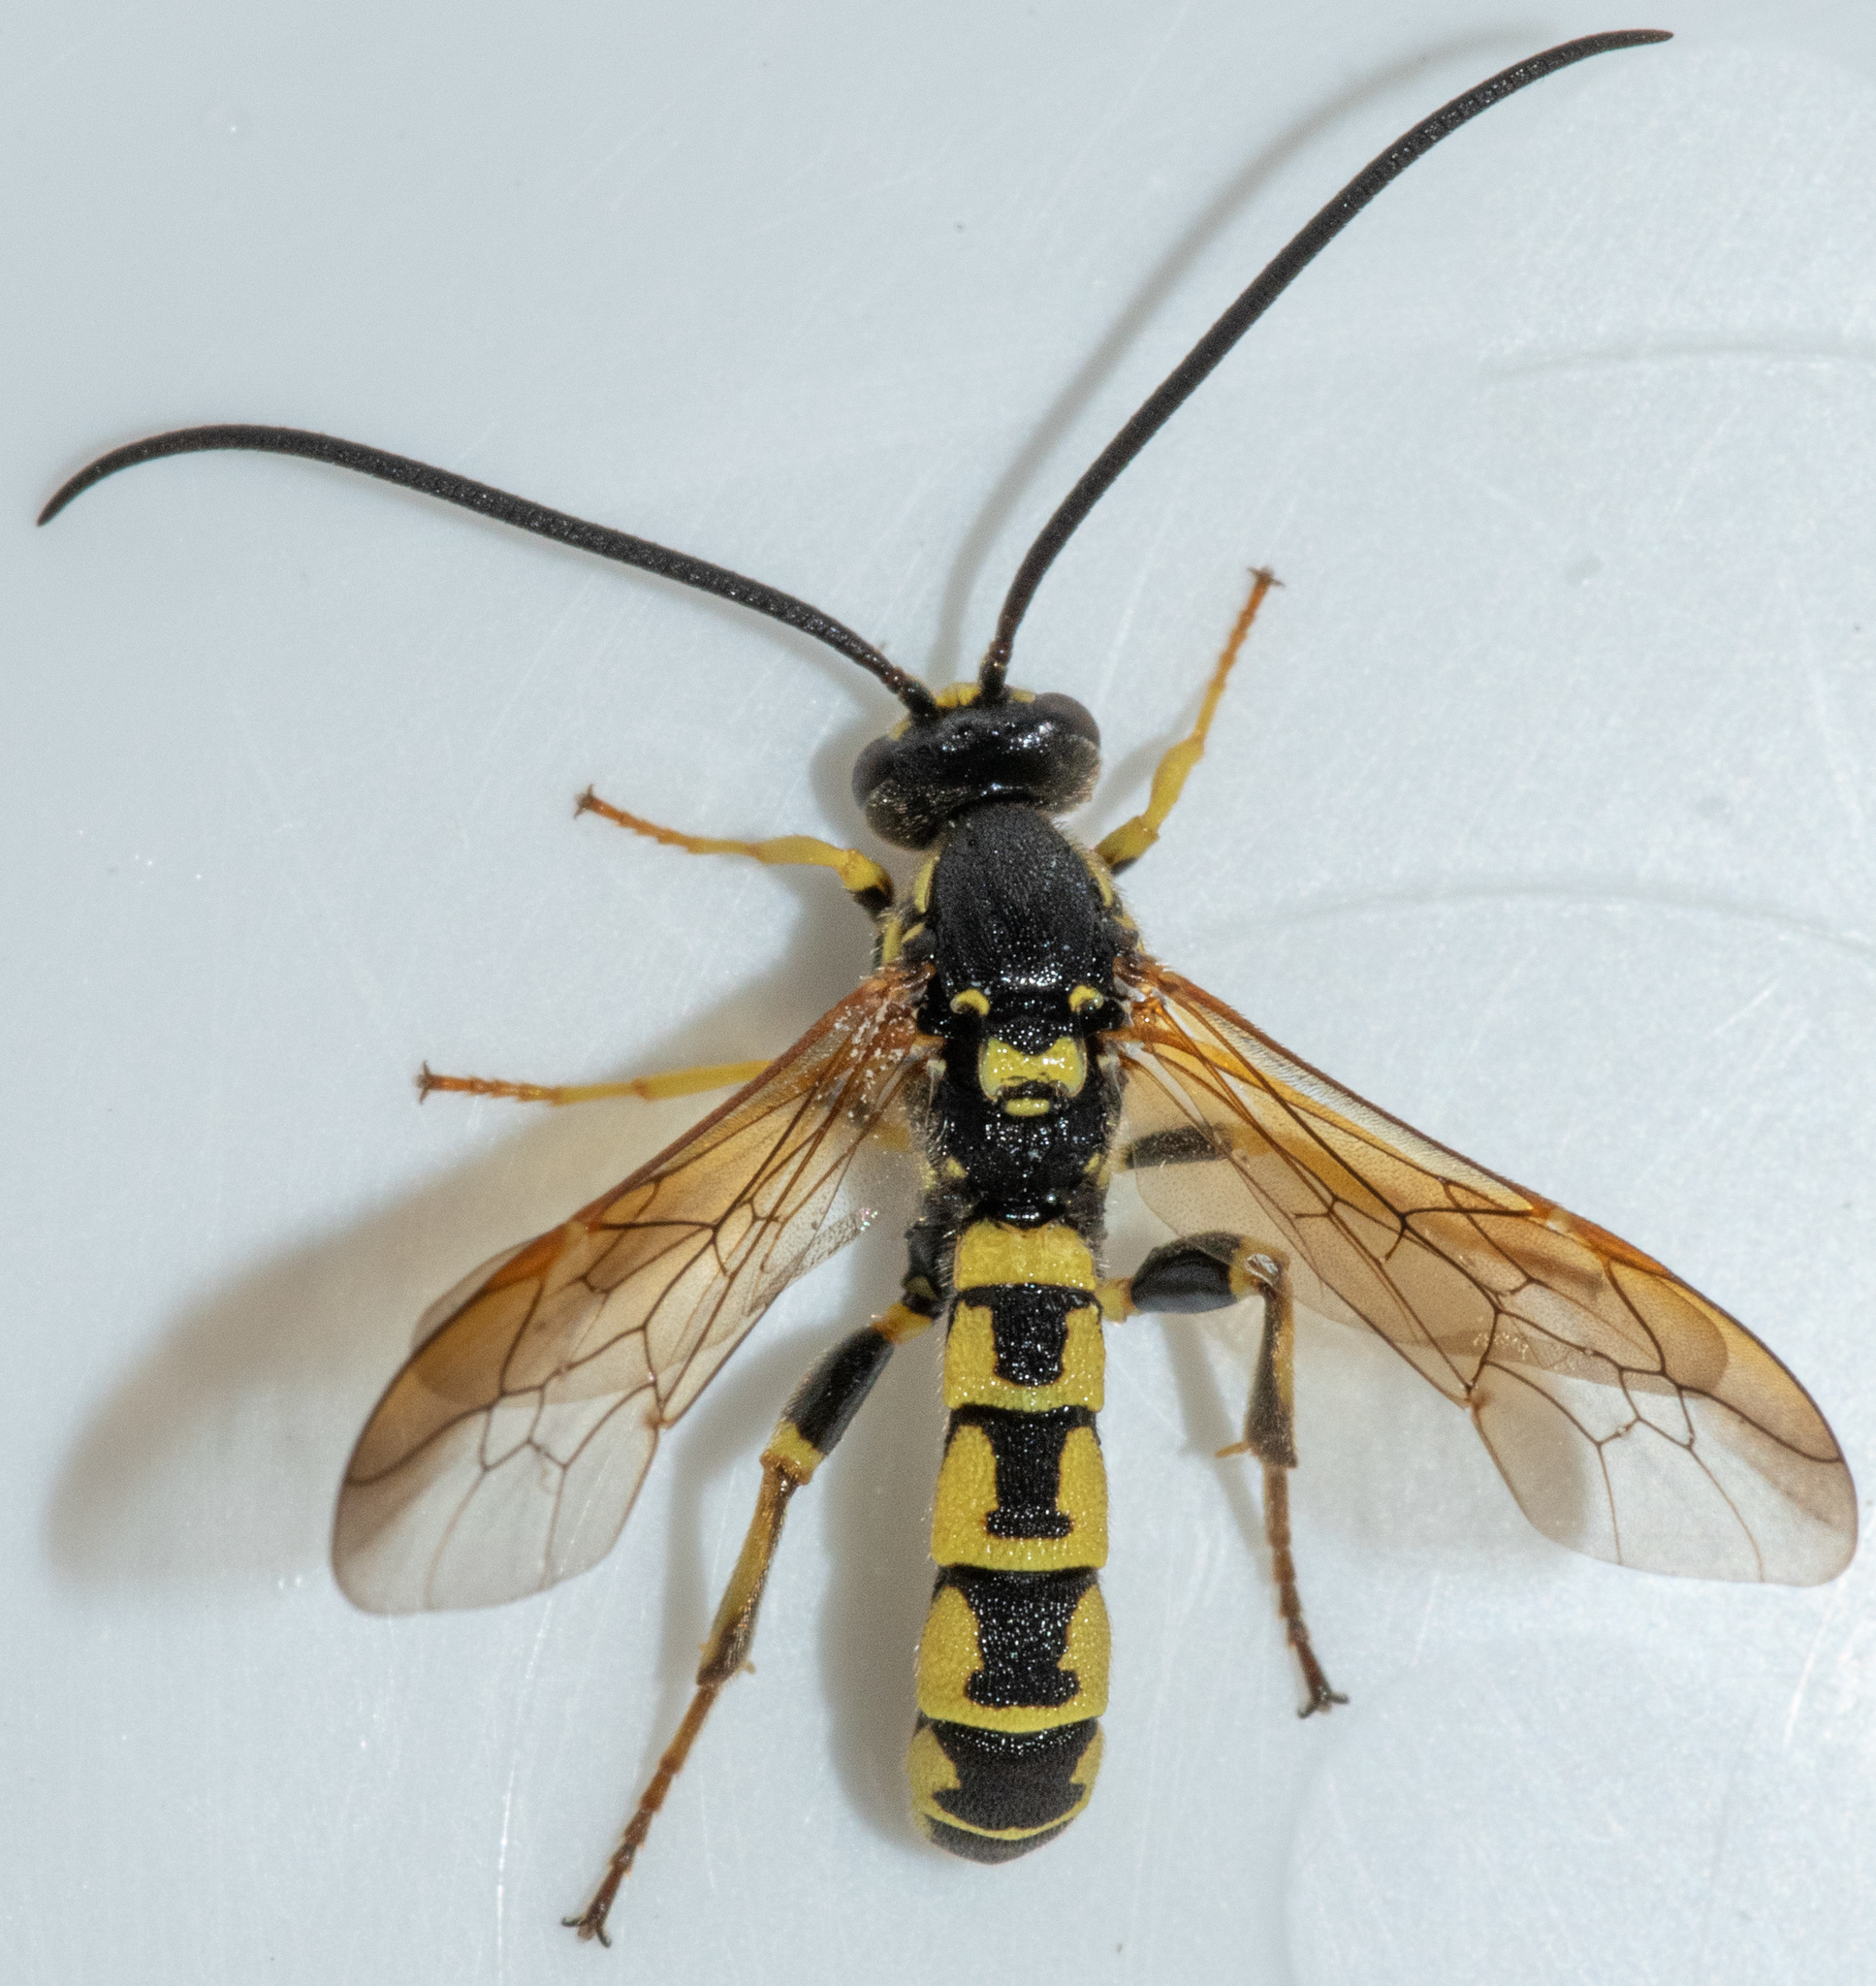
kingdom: Animalia
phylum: Arthropoda
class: Insecta
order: Hymenoptera
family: Ichneumonidae
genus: Metopius
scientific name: Metopius galbaneus
